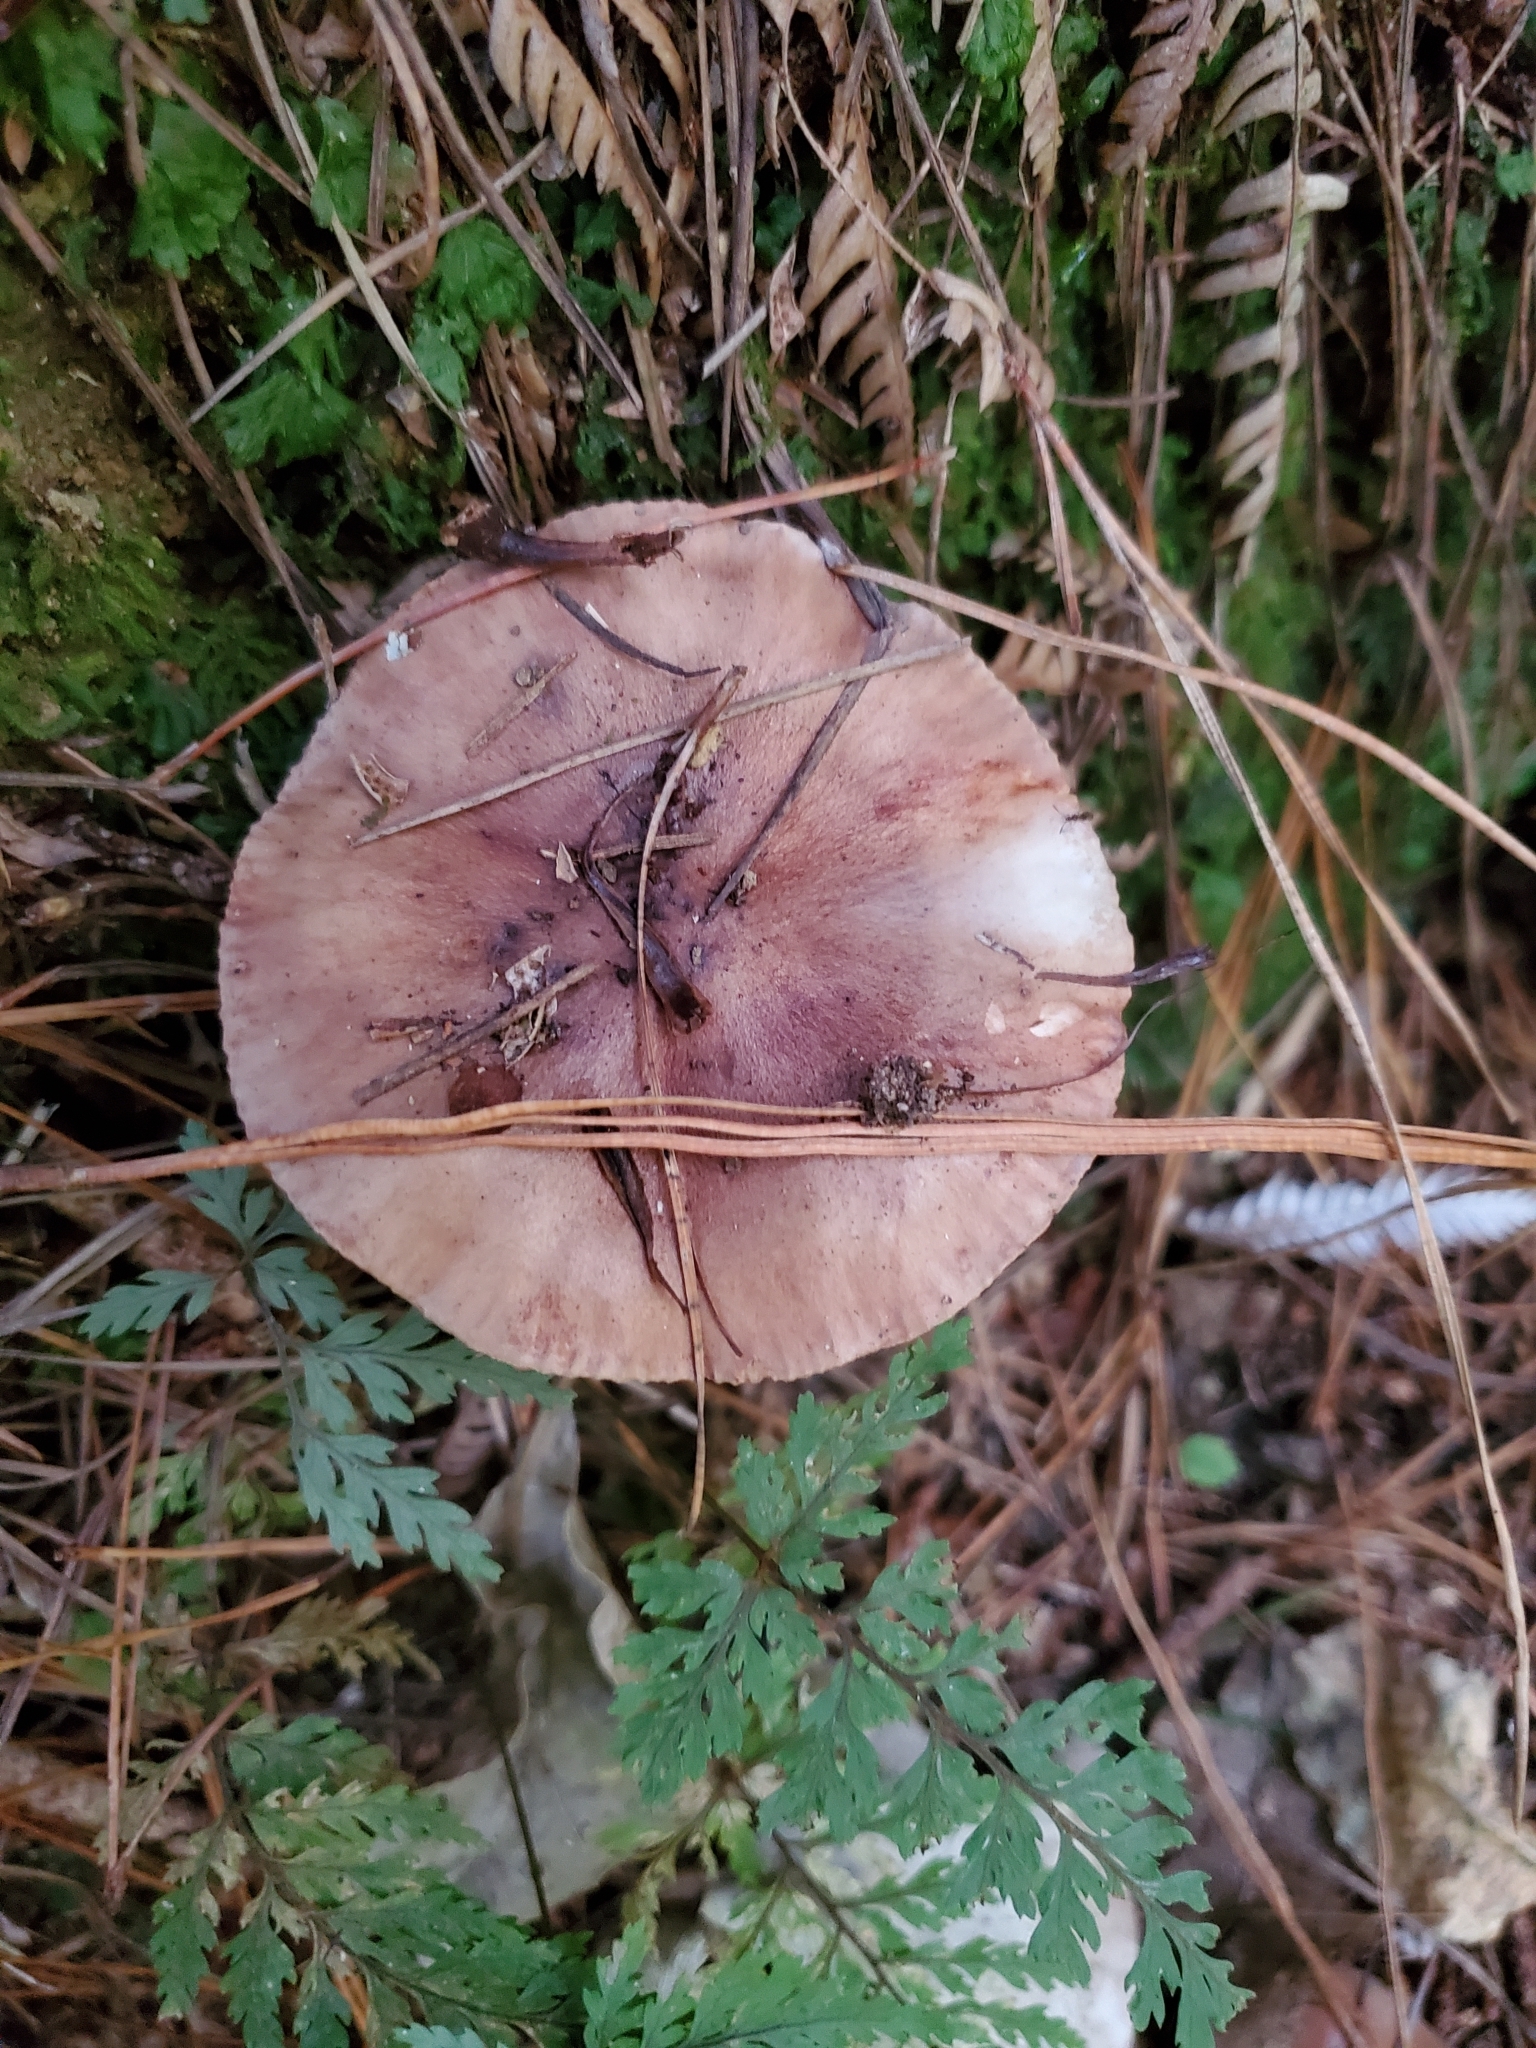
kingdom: Fungi
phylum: Basidiomycota
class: Agaricomycetes
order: Agaricales
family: Tricholomataceae
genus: Tricholoma
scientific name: Tricholoma batschii
